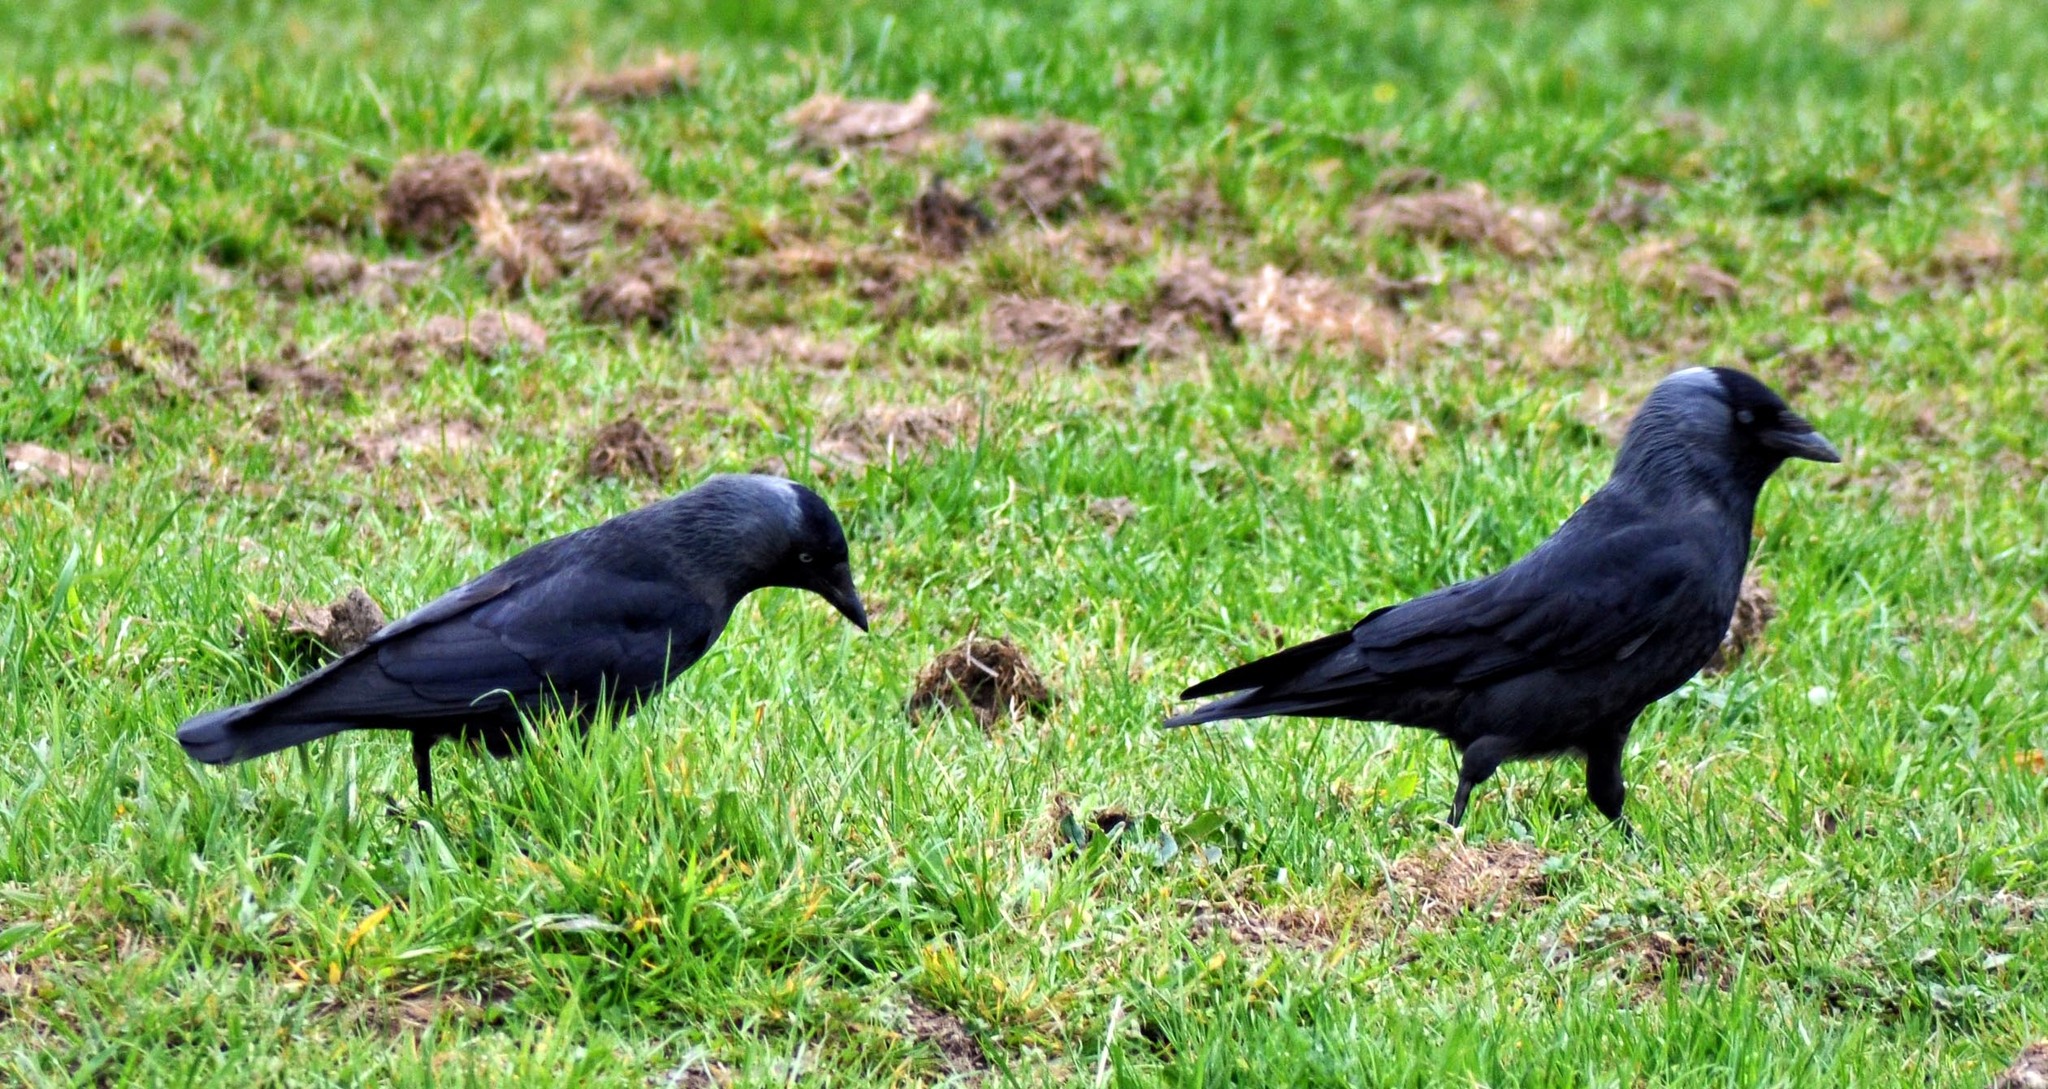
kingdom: Animalia
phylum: Chordata
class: Aves
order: Passeriformes
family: Corvidae
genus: Coloeus
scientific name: Coloeus monedula
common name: Western jackdaw
